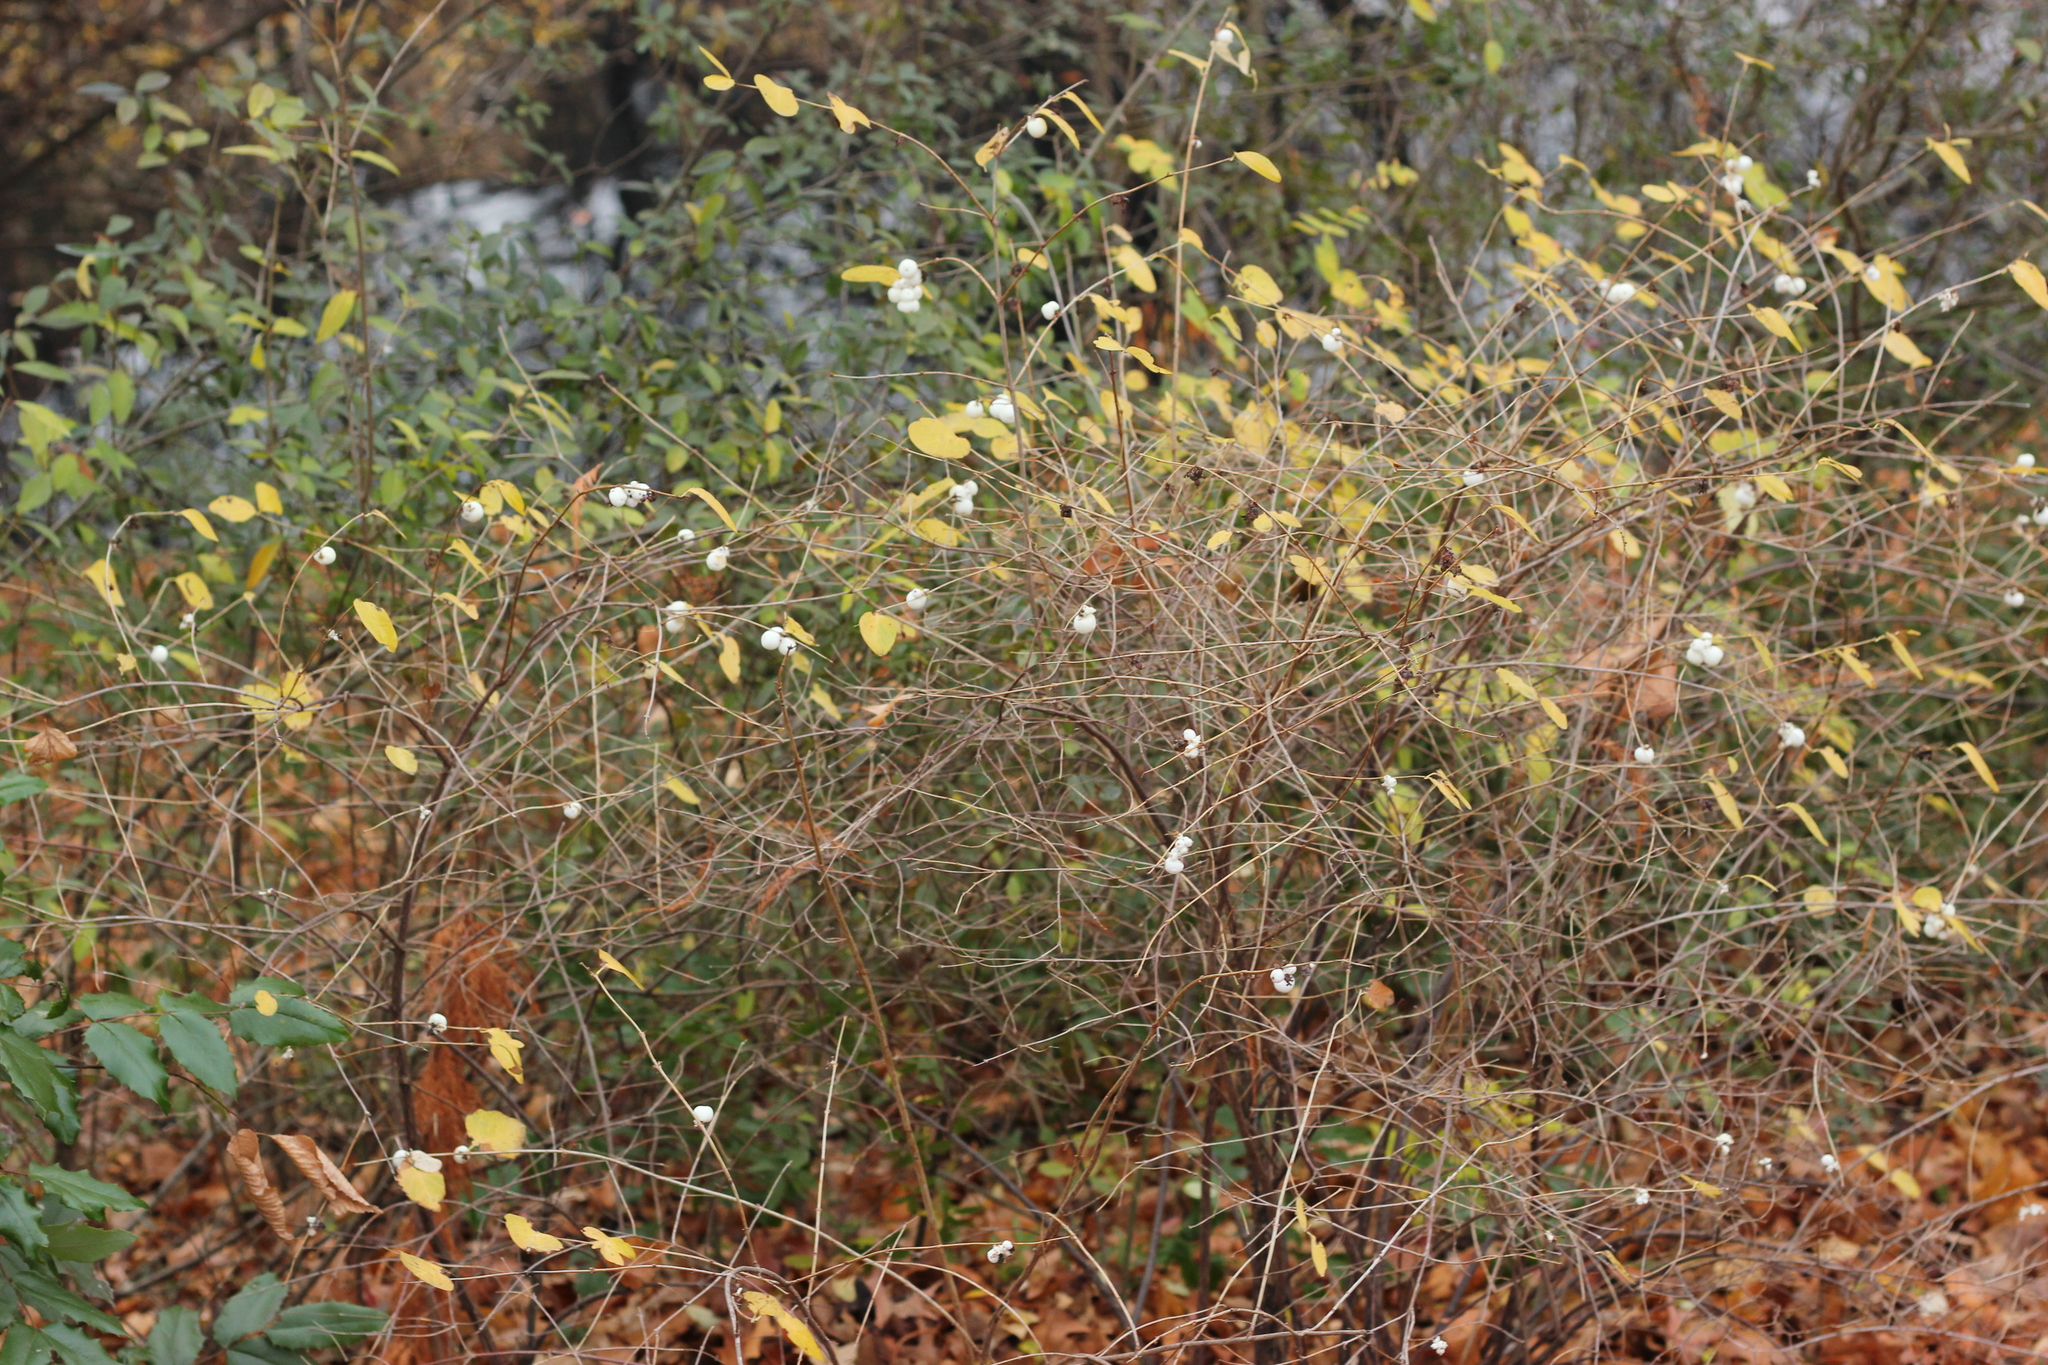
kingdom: Plantae
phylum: Tracheophyta
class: Magnoliopsida
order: Dipsacales
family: Caprifoliaceae
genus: Symphoricarpos
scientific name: Symphoricarpos albus
